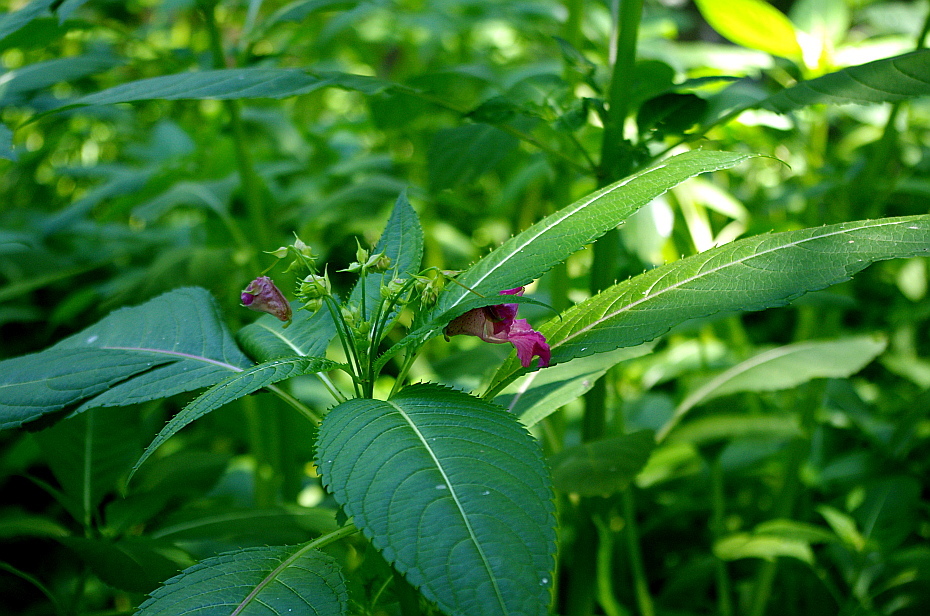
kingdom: Plantae
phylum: Tracheophyta
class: Magnoliopsida
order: Ericales
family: Balsaminaceae
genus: Impatiens
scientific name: Impatiens glandulifera
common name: Himalayan balsam
